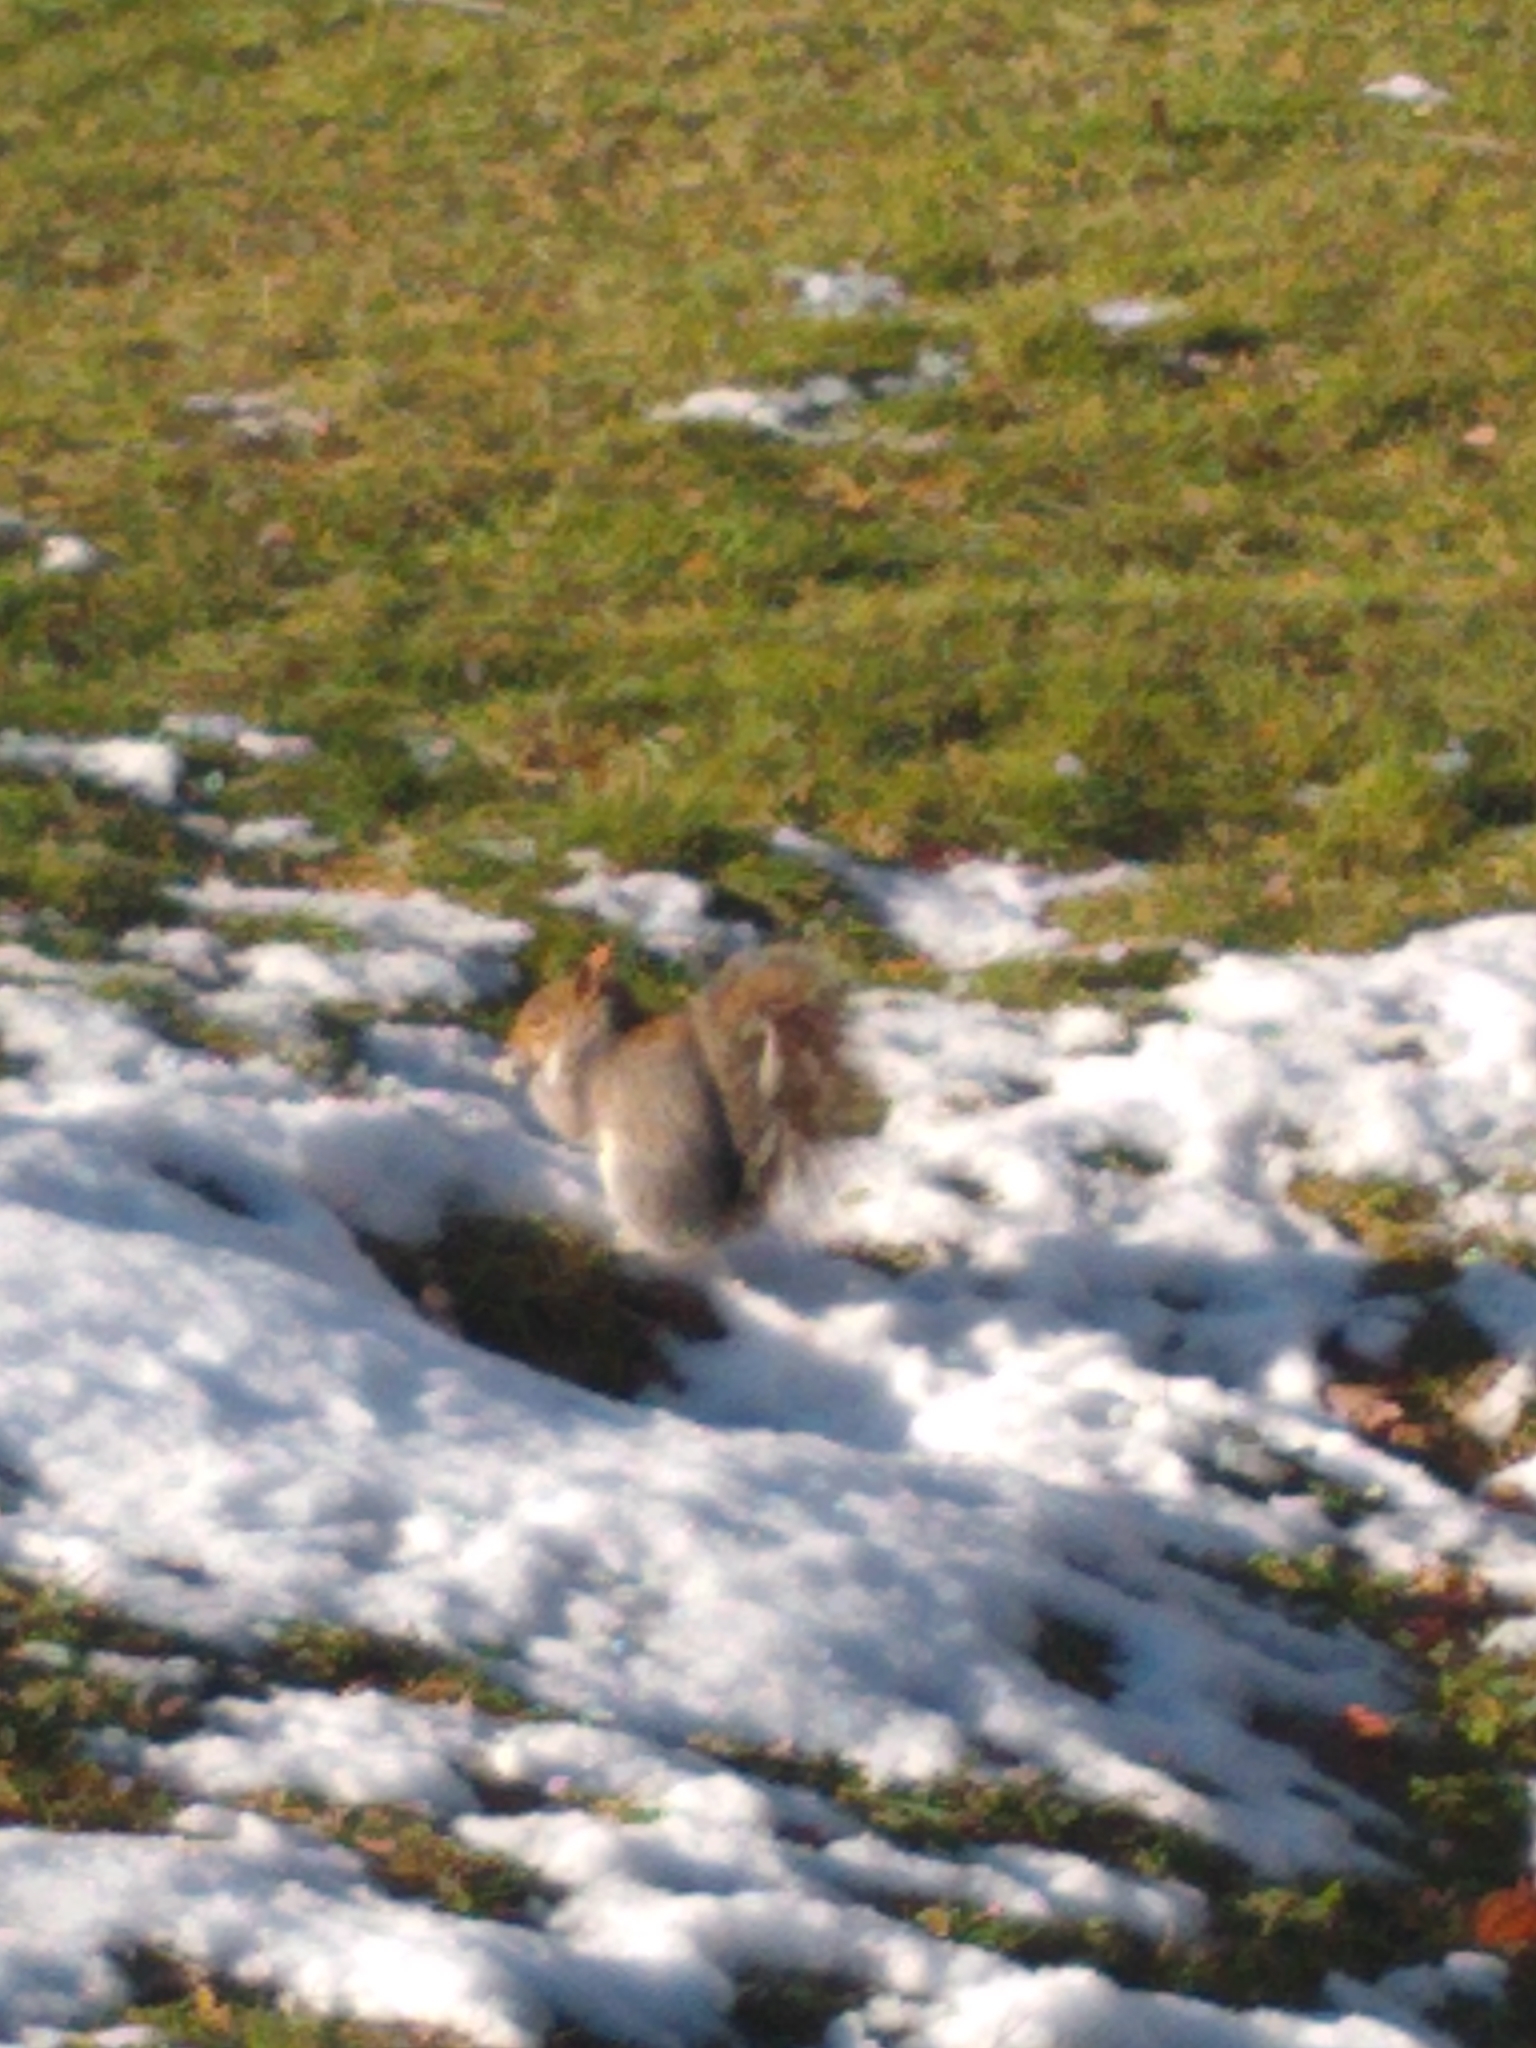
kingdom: Animalia
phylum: Chordata
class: Mammalia
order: Rodentia
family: Sciuridae
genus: Sciurus
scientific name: Sciurus carolinensis
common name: Eastern gray squirrel
